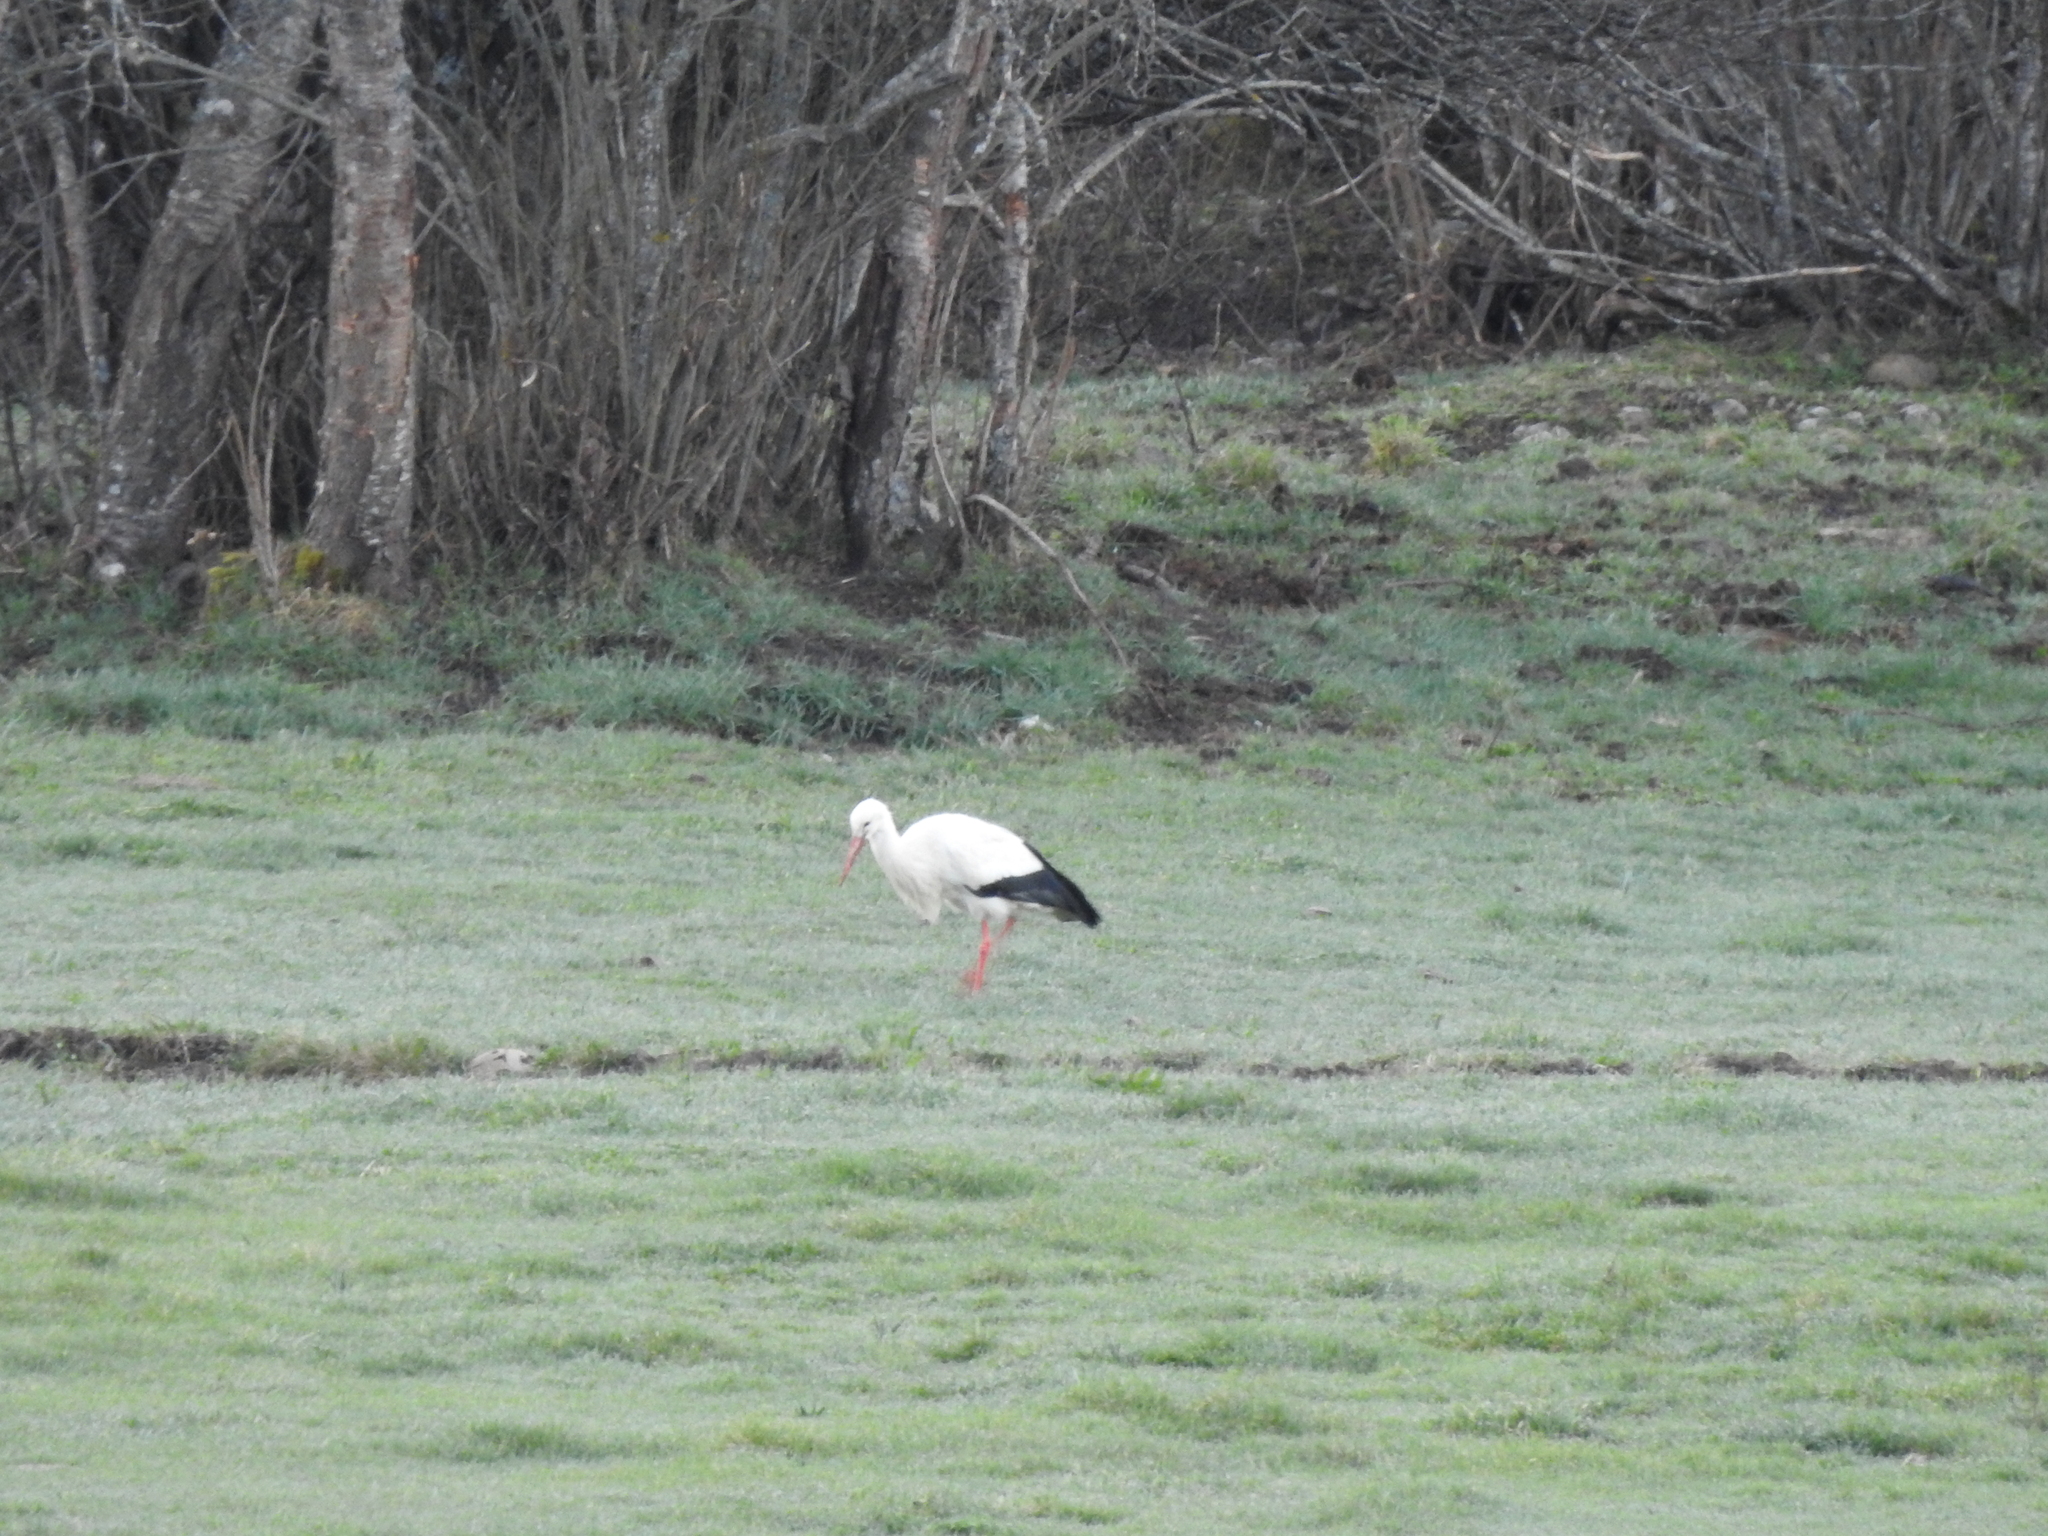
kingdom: Animalia
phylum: Chordata
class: Aves
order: Ciconiiformes
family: Ciconiidae
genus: Ciconia
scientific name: Ciconia ciconia
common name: White stork
